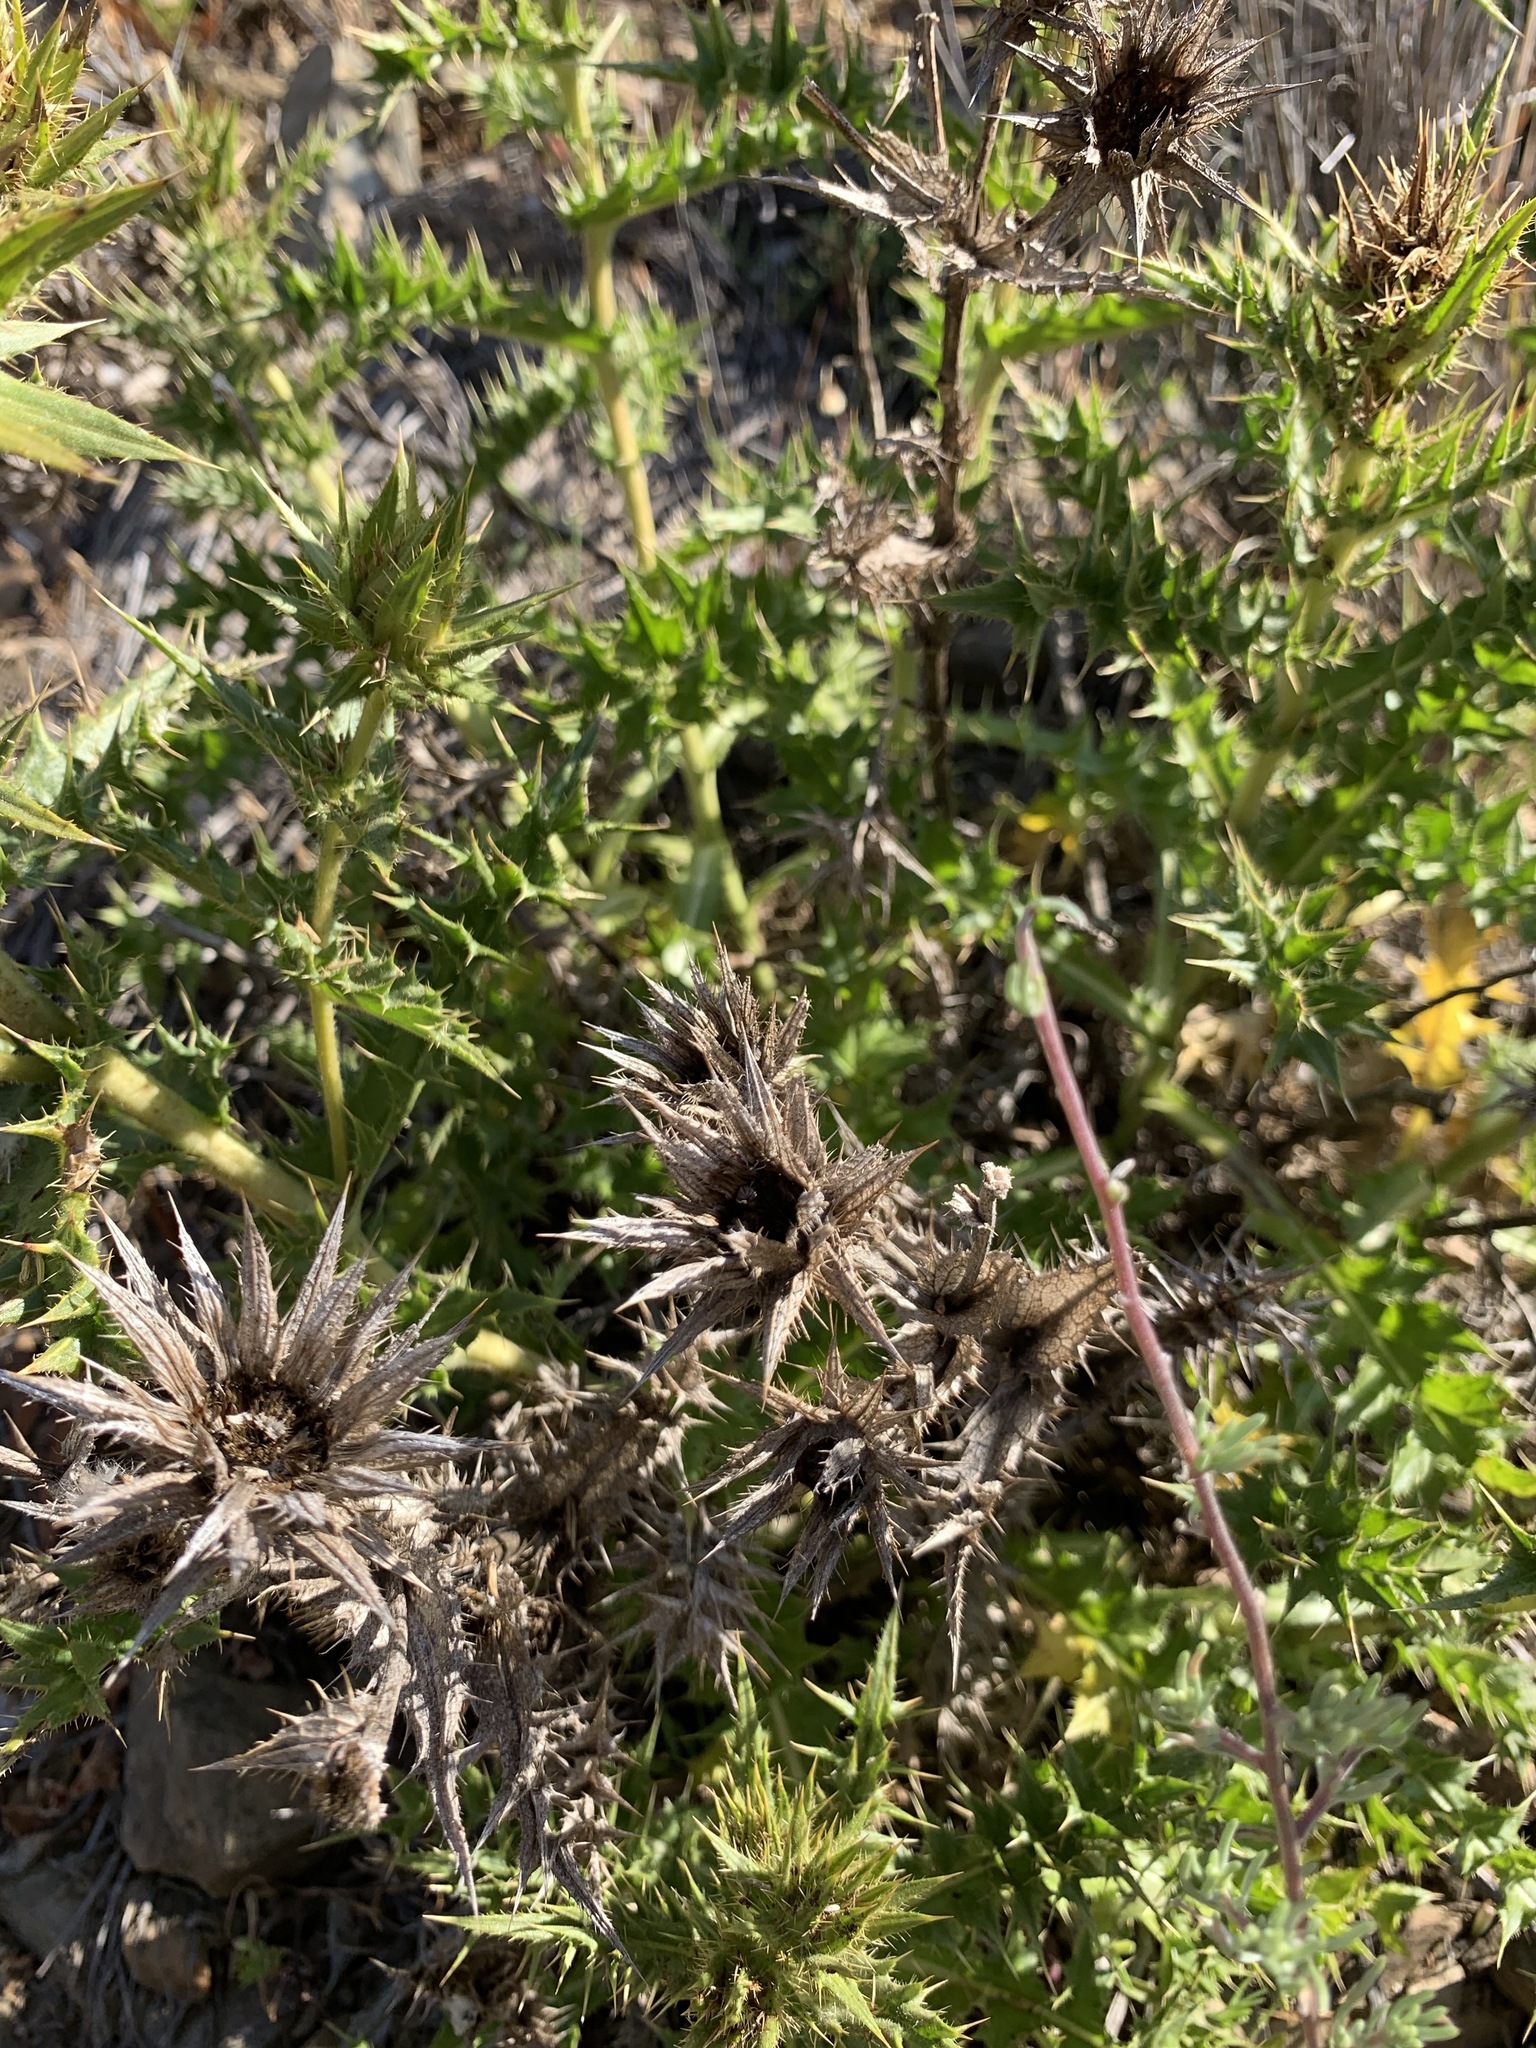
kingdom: Plantae
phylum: Tracheophyta
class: Magnoliopsida
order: Asterales
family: Asteraceae
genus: Berkheya
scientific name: Berkheya carlinifolia
